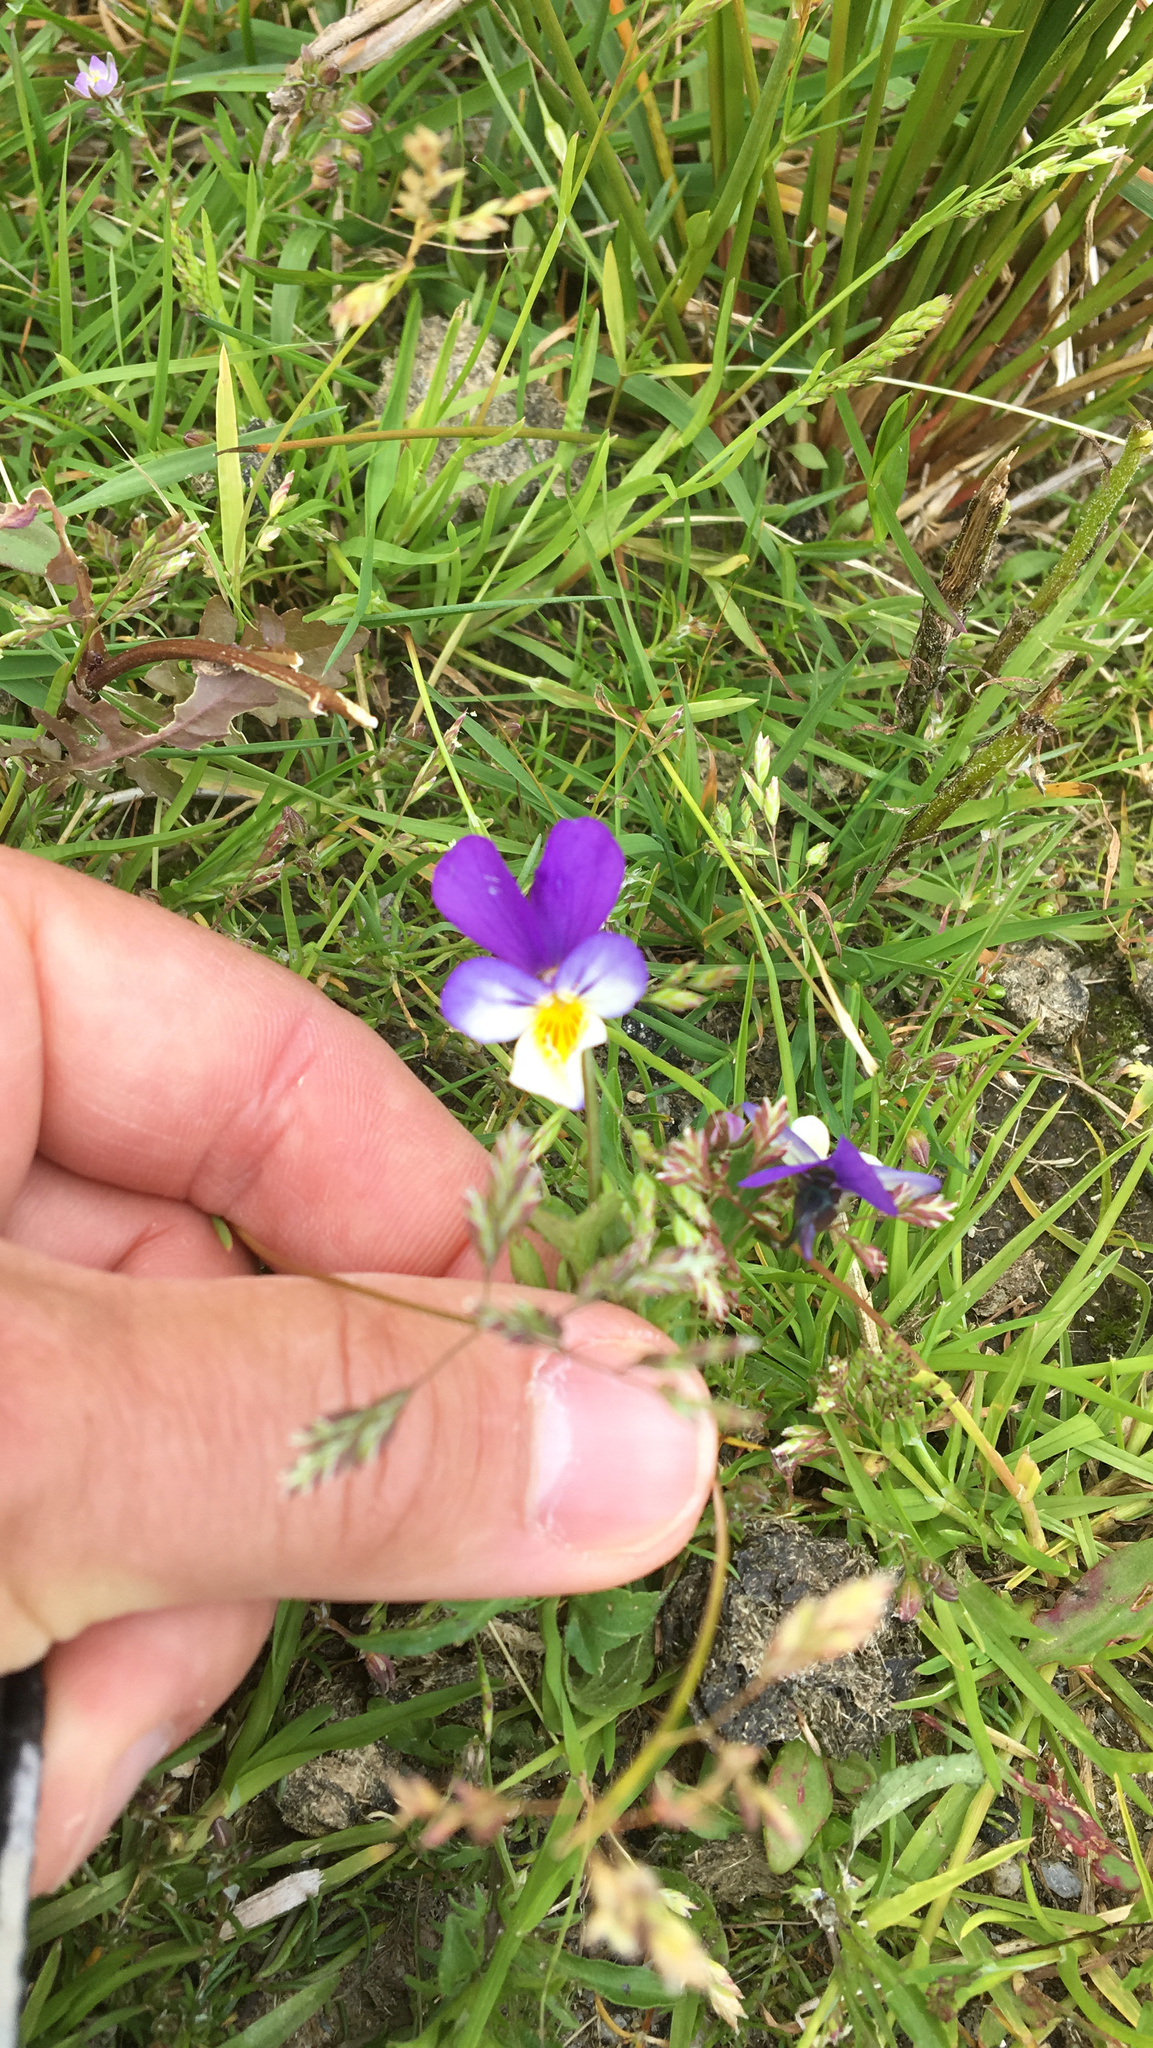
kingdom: Plantae
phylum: Tracheophyta
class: Magnoliopsida
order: Malpighiales
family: Violaceae
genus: Viola
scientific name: Viola tricolor
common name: Pansy
